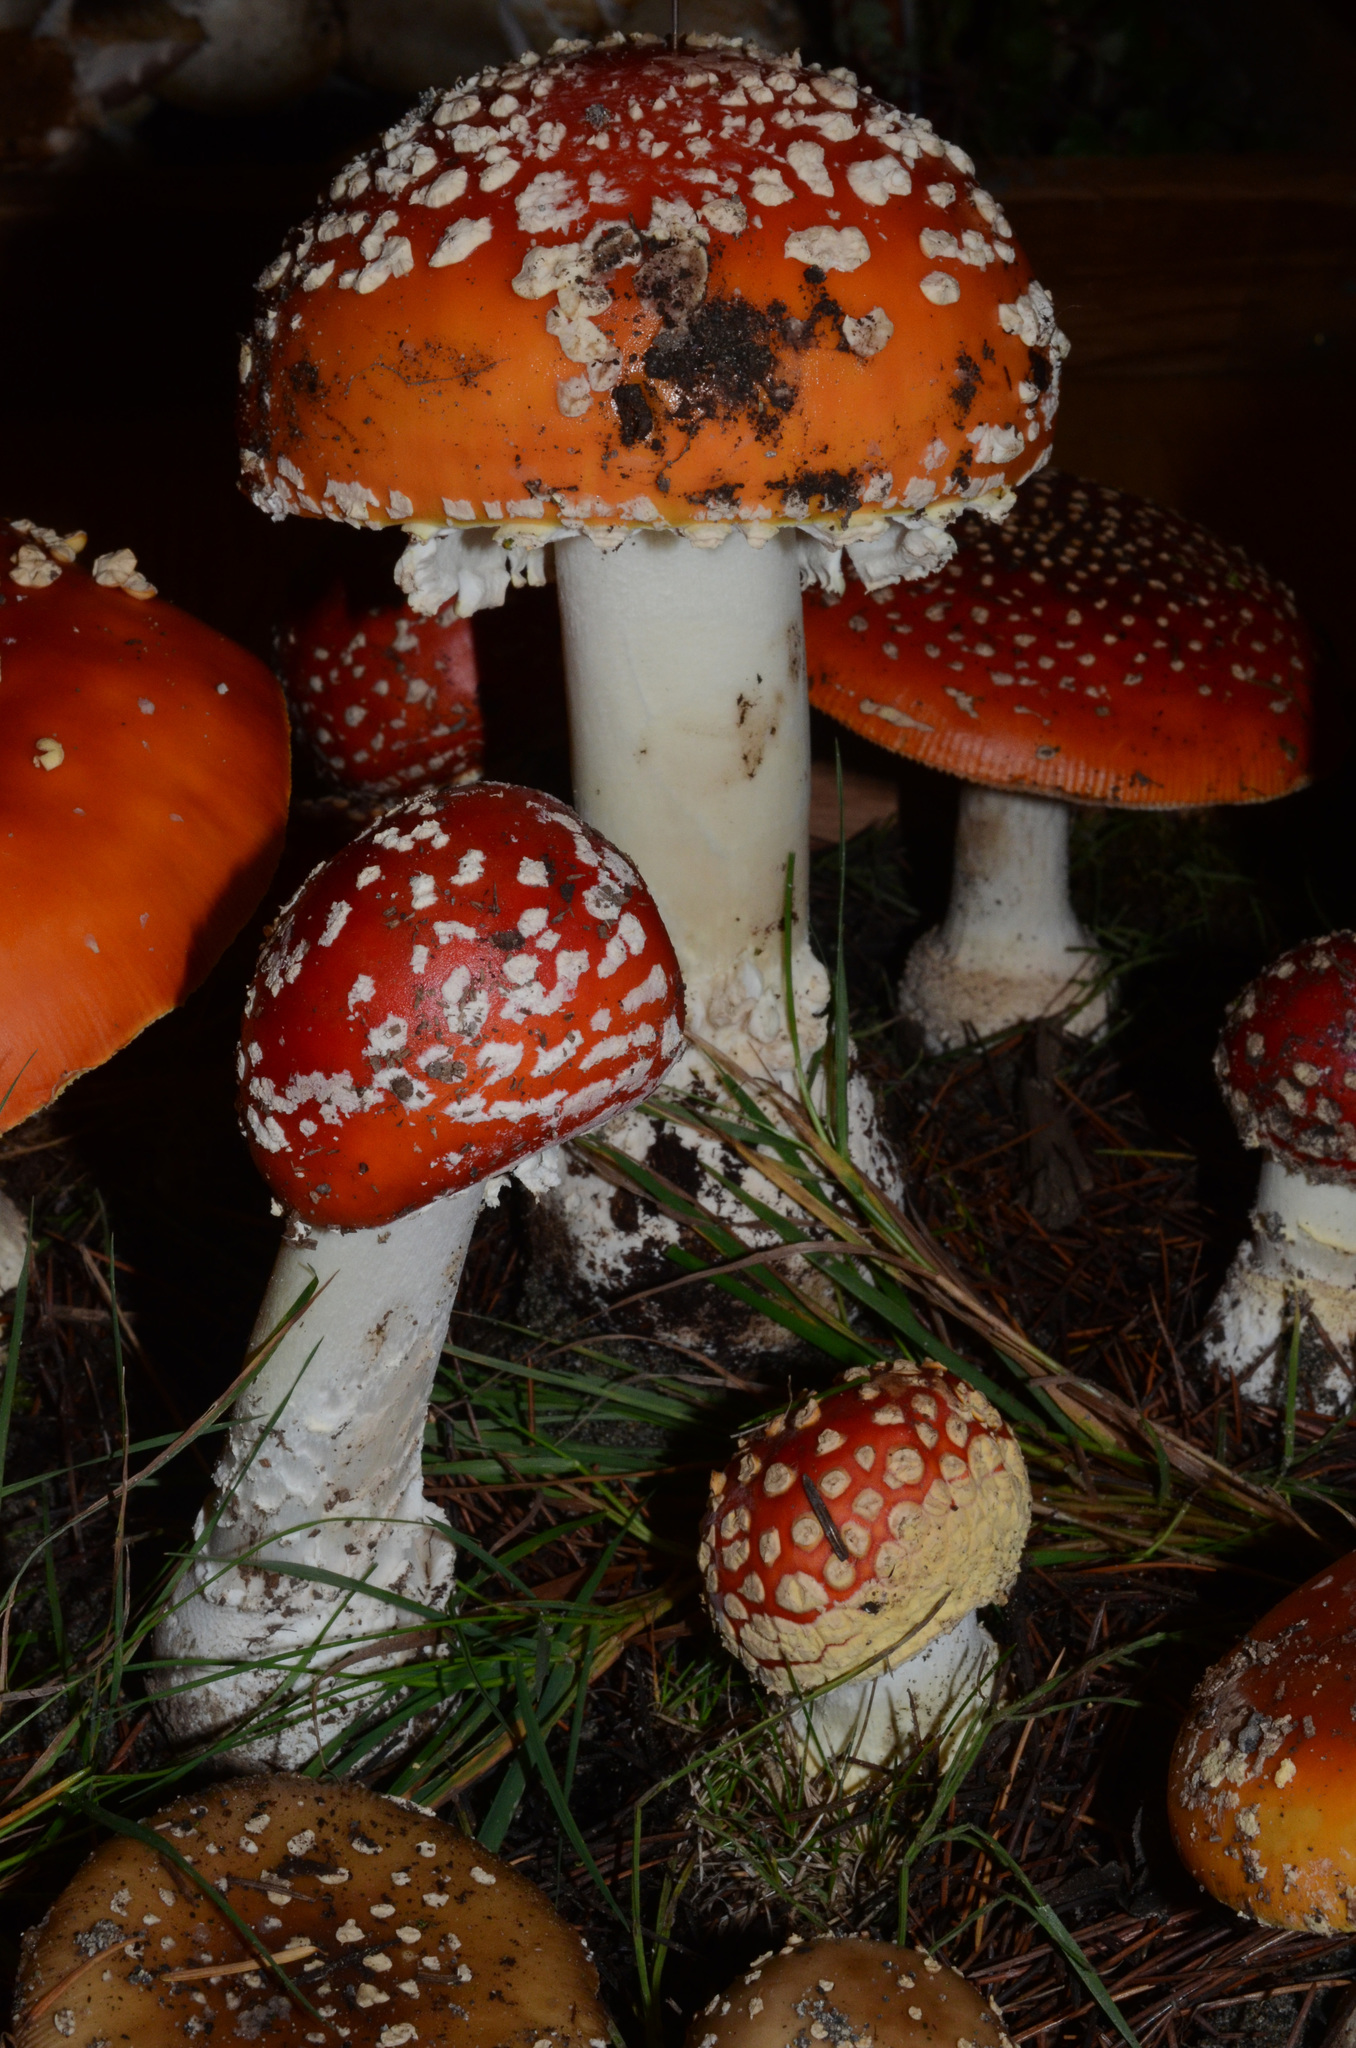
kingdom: Fungi
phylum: Basidiomycota
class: Agaricomycetes
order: Agaricales
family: Amanitaceae
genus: Amanita
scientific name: Amanita muscaria
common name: Fly agaric
